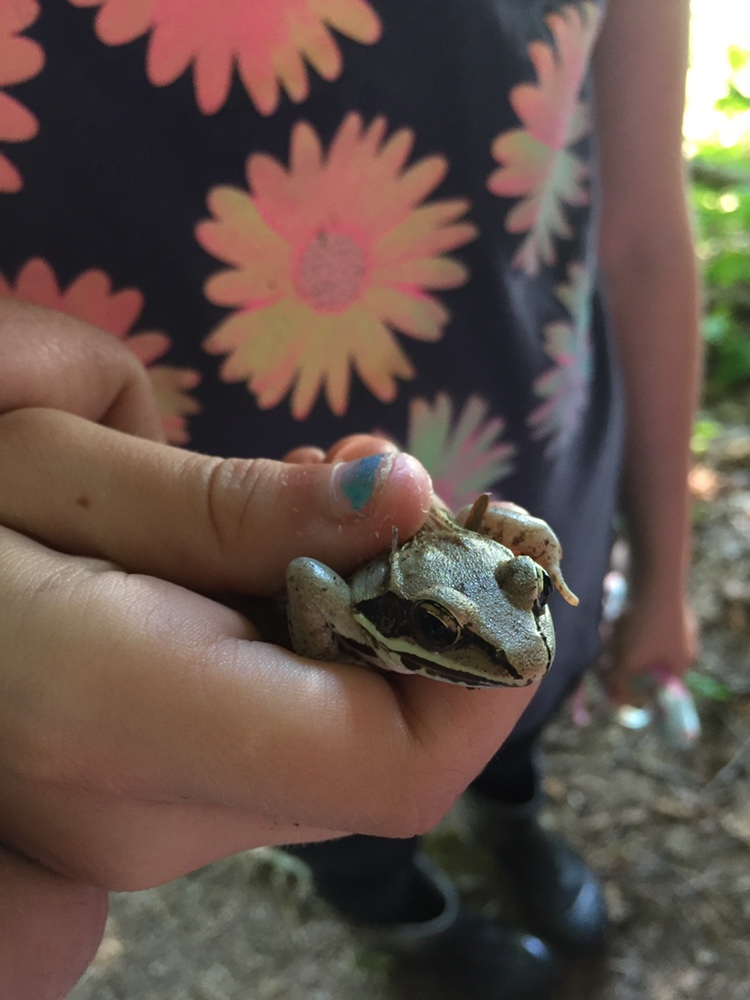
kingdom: Animalia
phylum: Chordata
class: Amphibia
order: Anura
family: Ranidae
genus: Lithobates
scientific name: Lithobates sylvaticus
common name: Wood frog
